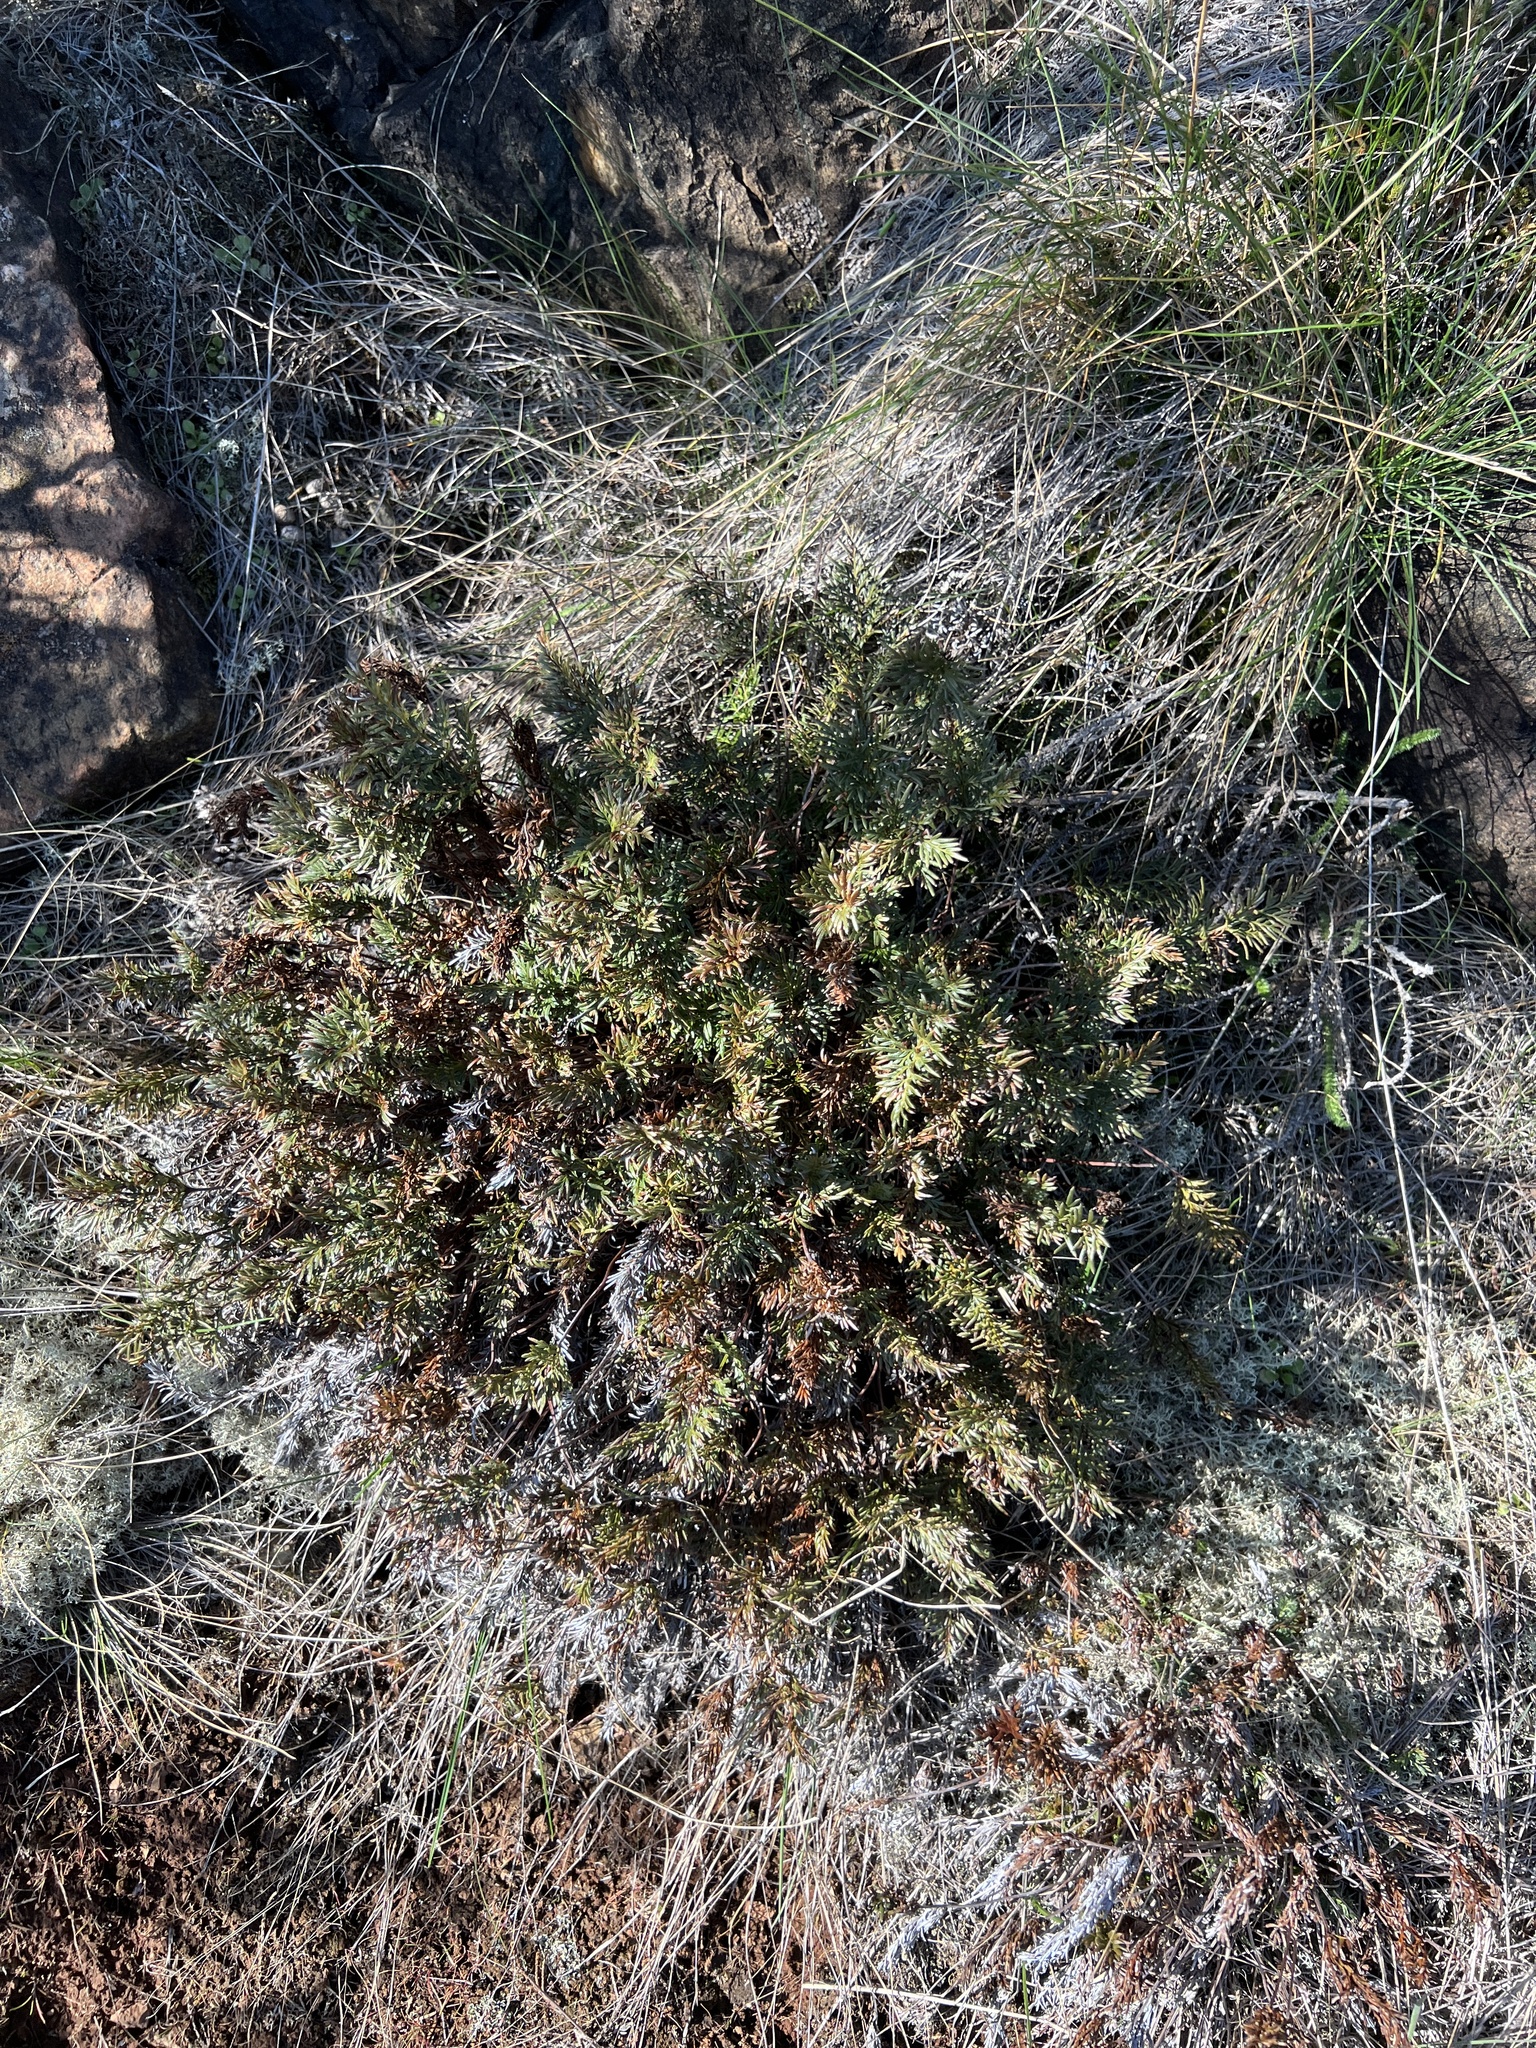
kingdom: Plantae
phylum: Tracheophyta
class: Polypodiopsida
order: Polypodiales
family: Pteridaceae
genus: Aspidotis
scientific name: Aspidotis densa
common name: Indian's dream
